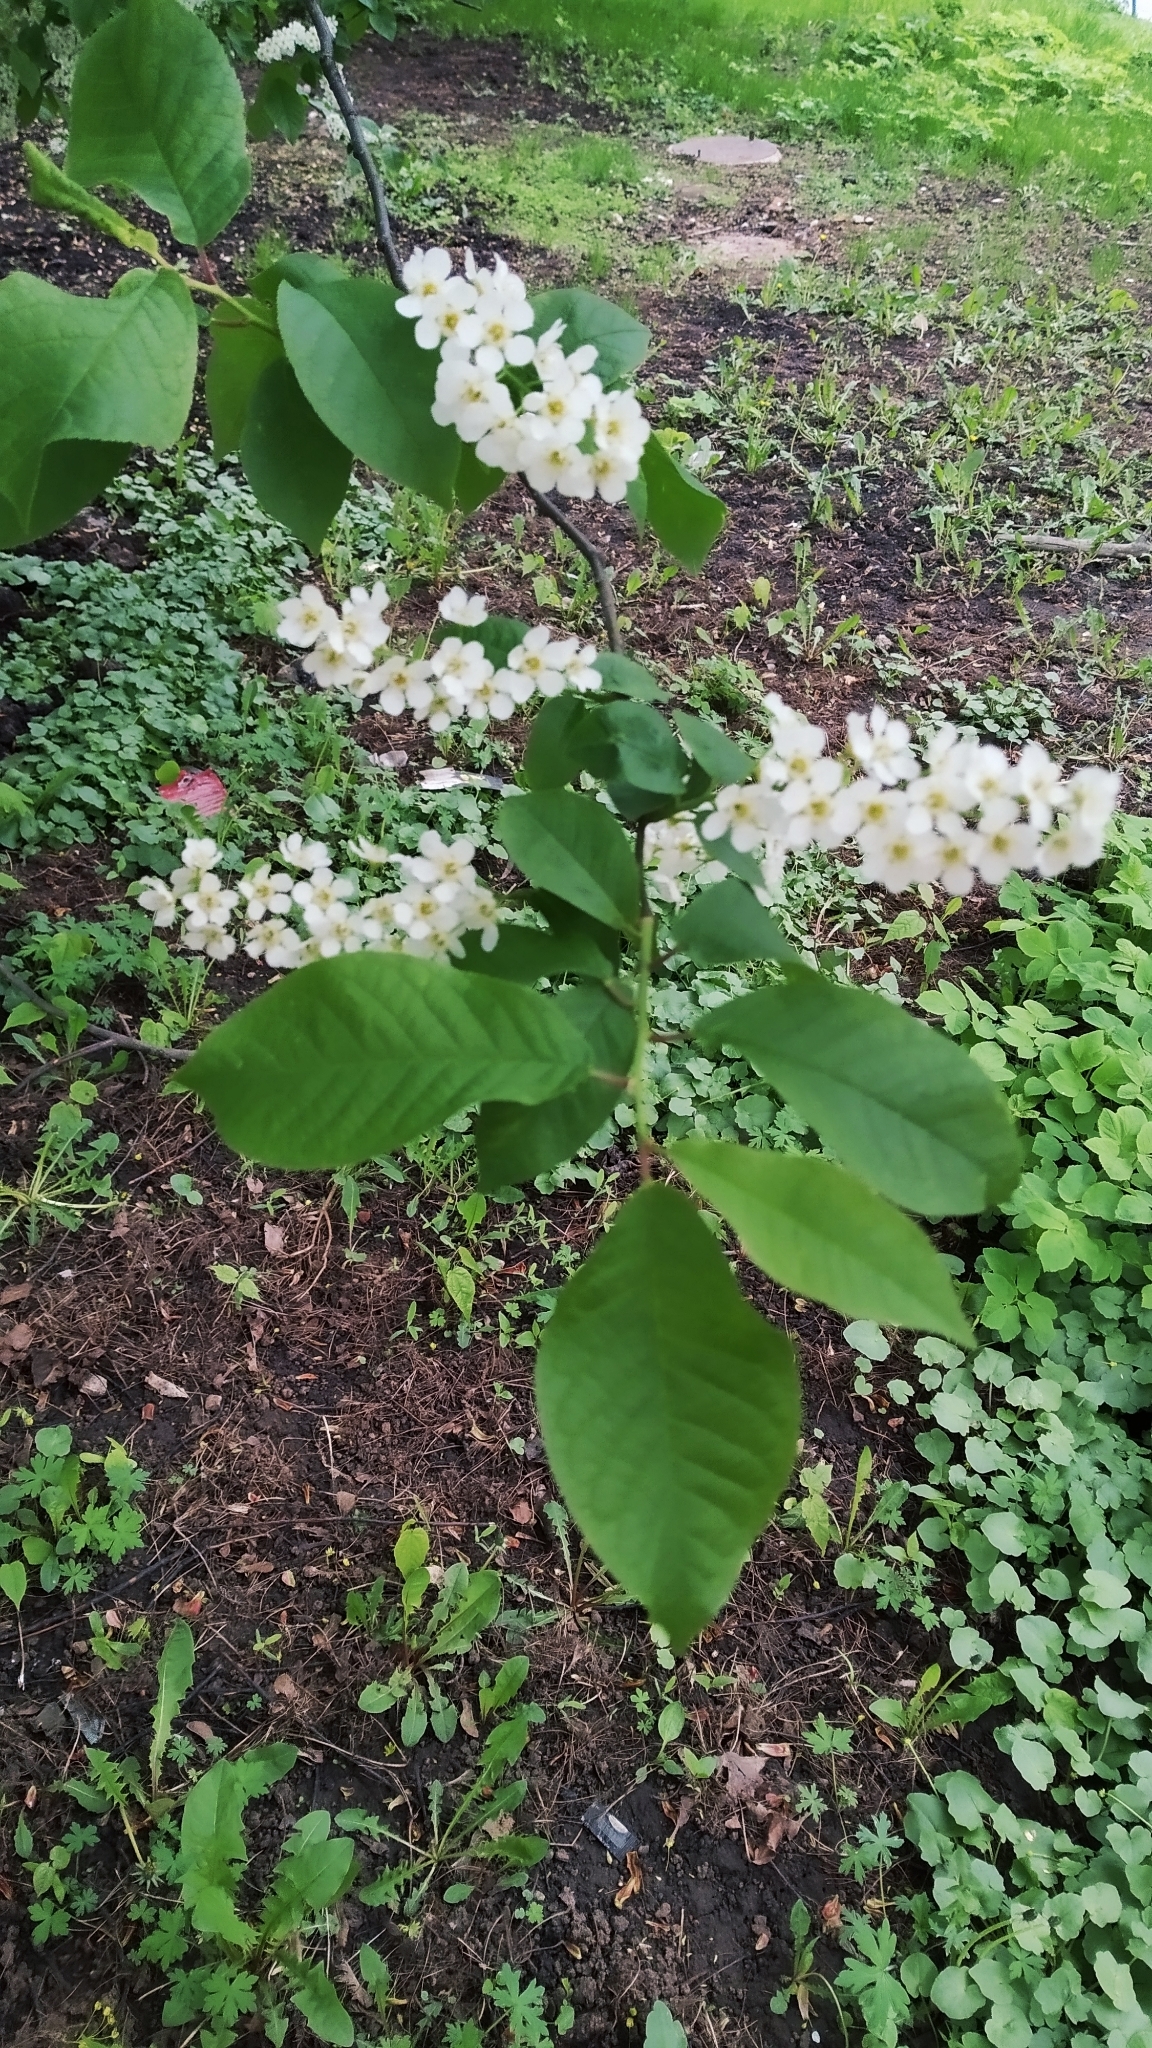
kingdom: Plantae
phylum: Tracheophyta
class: Magnoliopsida
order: Rosales
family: Rosaceae
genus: Prunus
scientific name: Prunus padus
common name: Bird cherry
